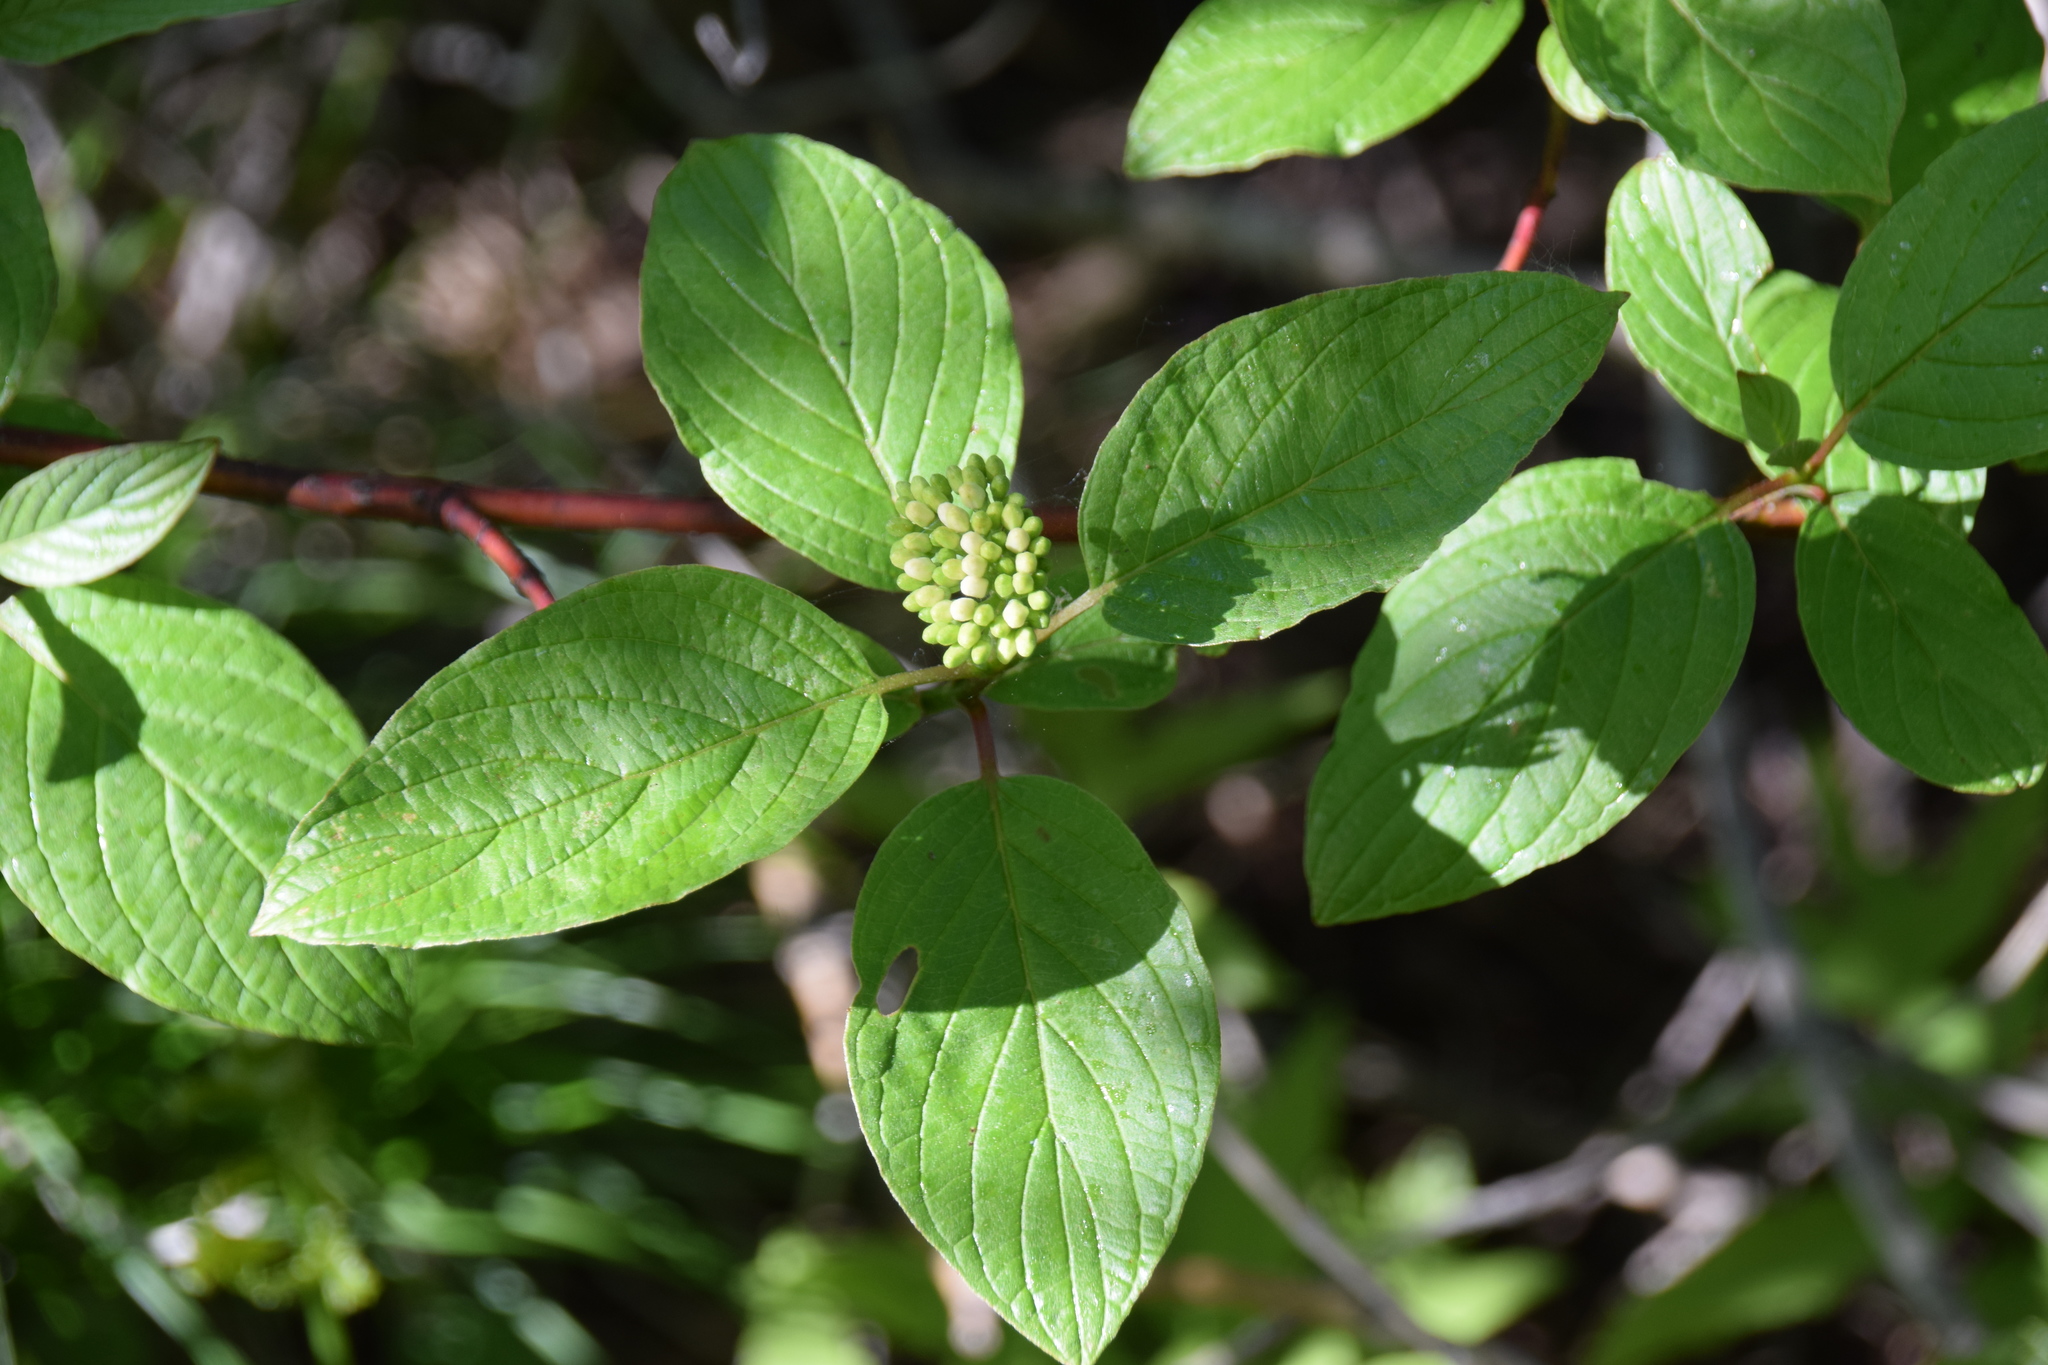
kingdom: Plantae
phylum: Tracheophyta
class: Magnoliopsida
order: Cornales
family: Cornaceae
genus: Cornus
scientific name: Cornus sericea
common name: Red-osier dogwood
